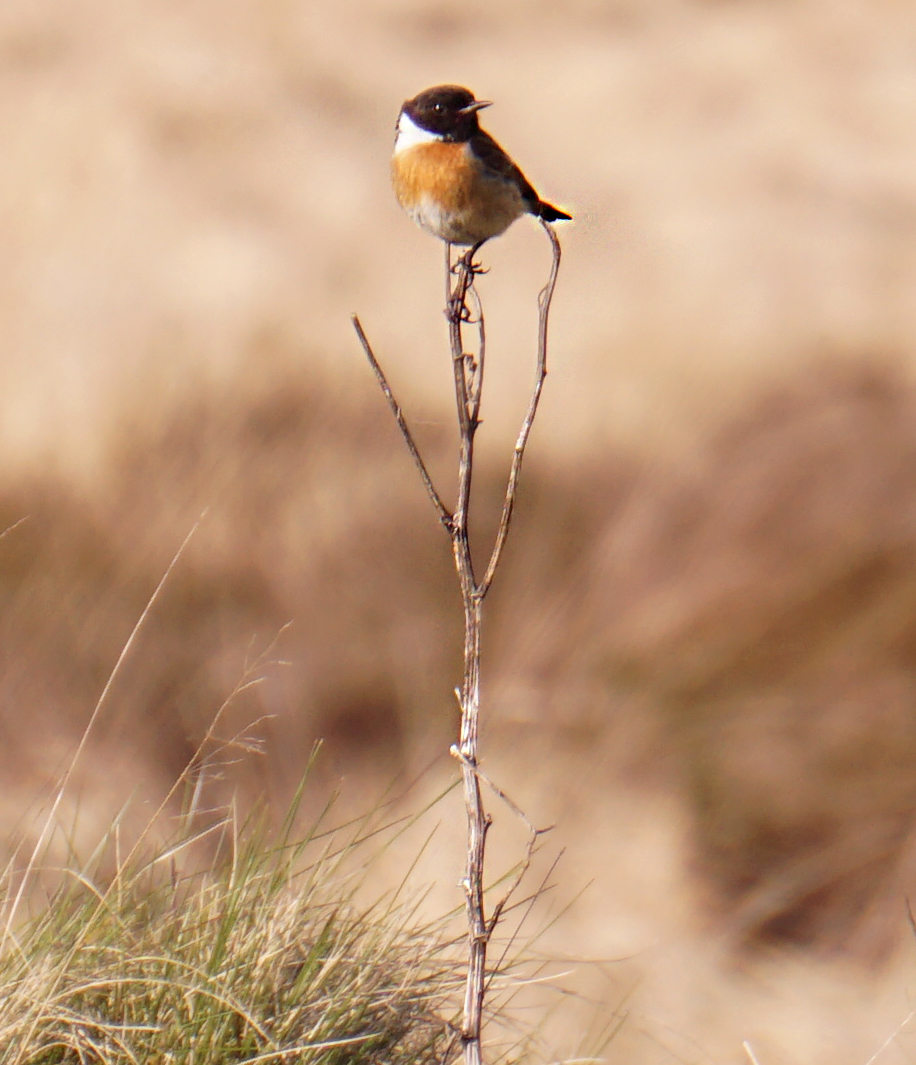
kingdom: Animalia
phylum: Chordata
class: Aves
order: Passeriformes
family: Muscicapidae
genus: Saxicola
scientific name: Saxicola rubicola
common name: European stonechat
